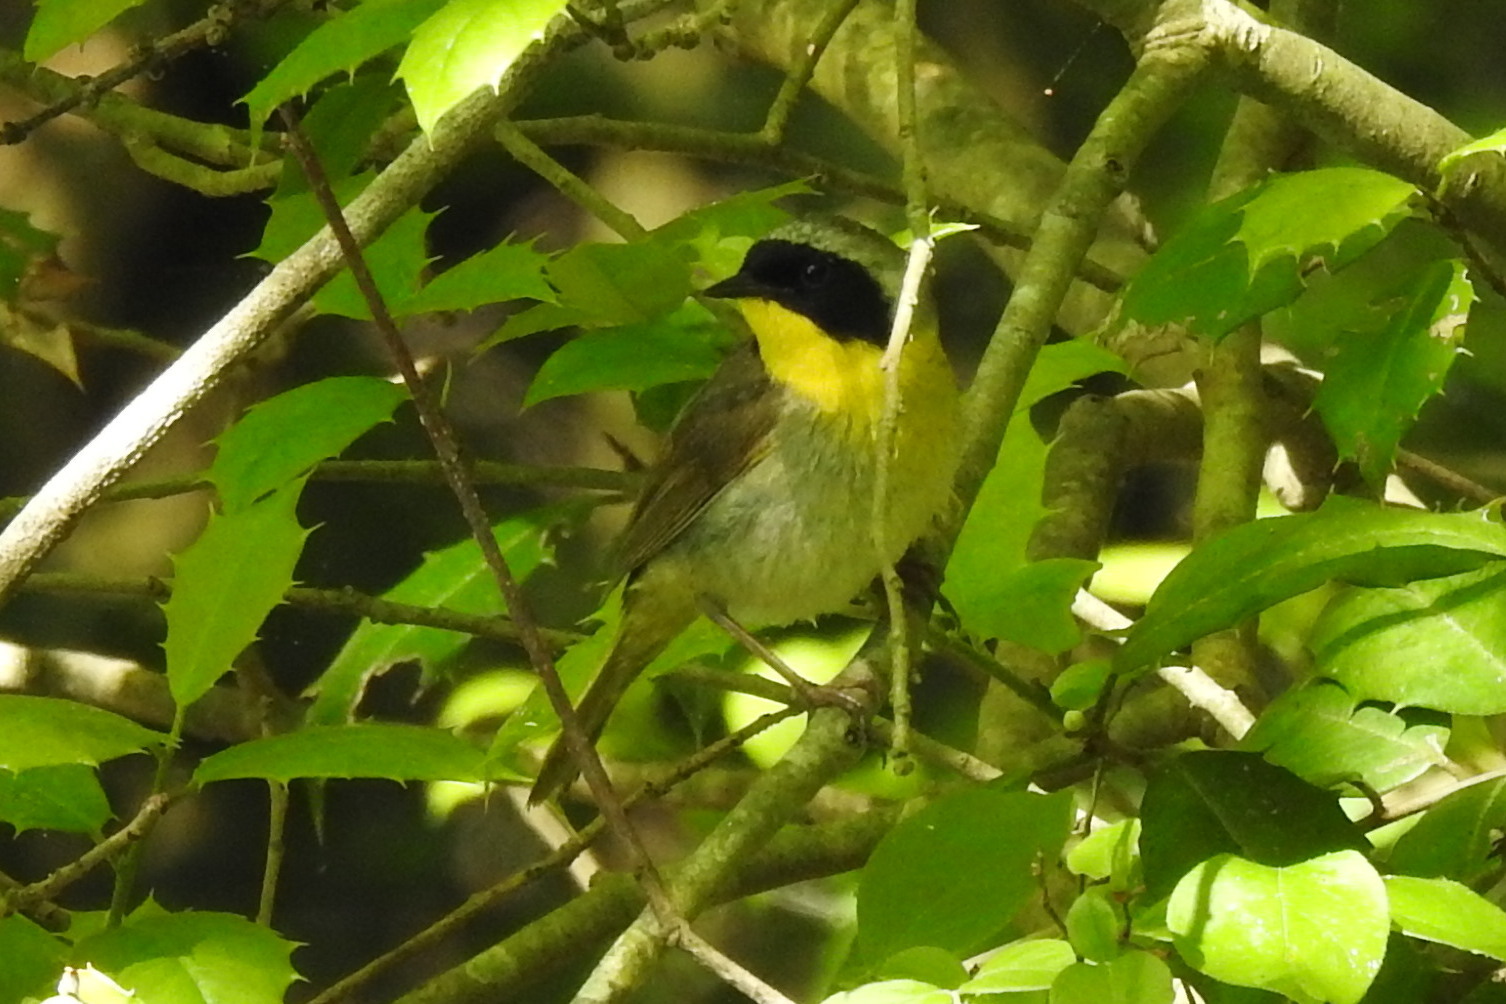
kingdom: Animalia
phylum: Chordata
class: Aves
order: Passeriformes
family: Parulidae
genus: Geothlypis
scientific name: Geothlypis trichas
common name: Common yellowthroat
